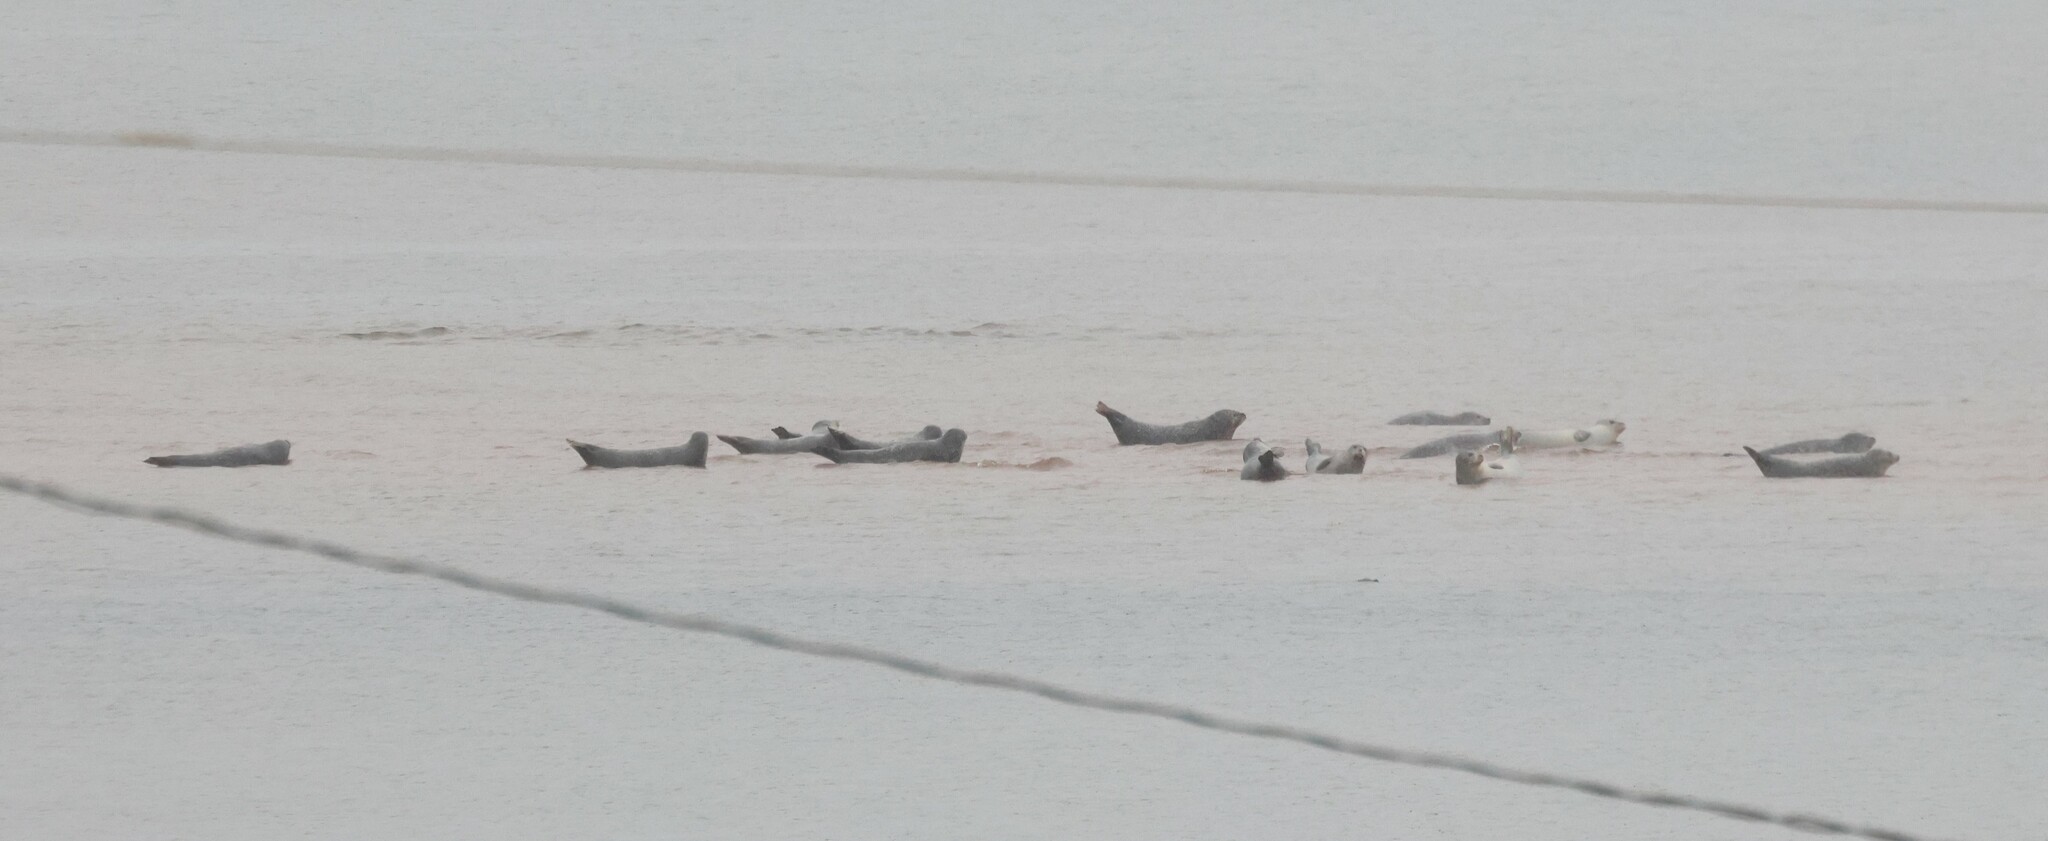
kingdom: Animalia
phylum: Chordata
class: Mammalia
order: Carnivora
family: Phocidae
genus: Phoca
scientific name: Phoca vitulina
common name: Harbor seal
